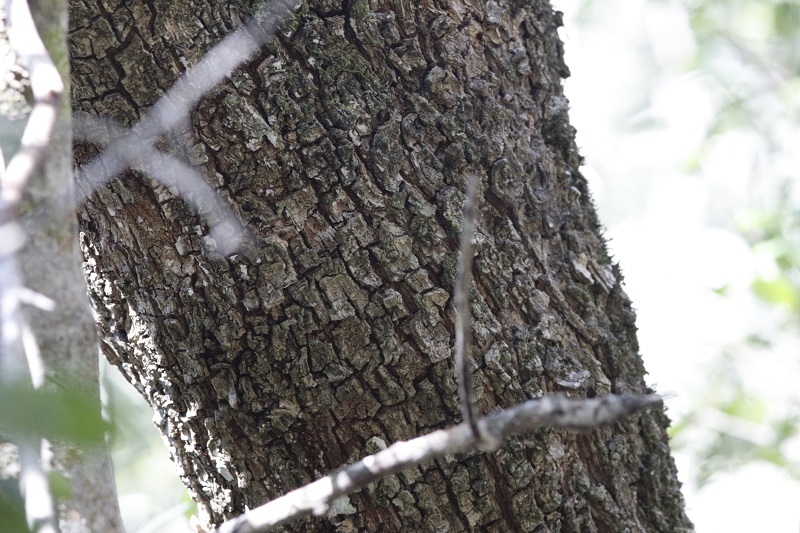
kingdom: Plantae
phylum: Tracheophyta
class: Magnoliopsida
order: Ericales
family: Sapotaceae
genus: Sideroxylon
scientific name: Sideroxylon inerme
